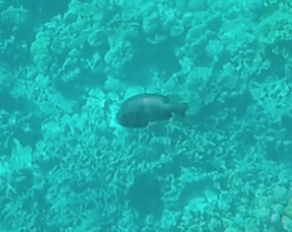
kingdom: Animalia
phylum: Chordata
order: Perciformes
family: Pomacentridae
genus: Dascyllus
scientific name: Dascyllus albisella
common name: Hawaiian dascyllus
